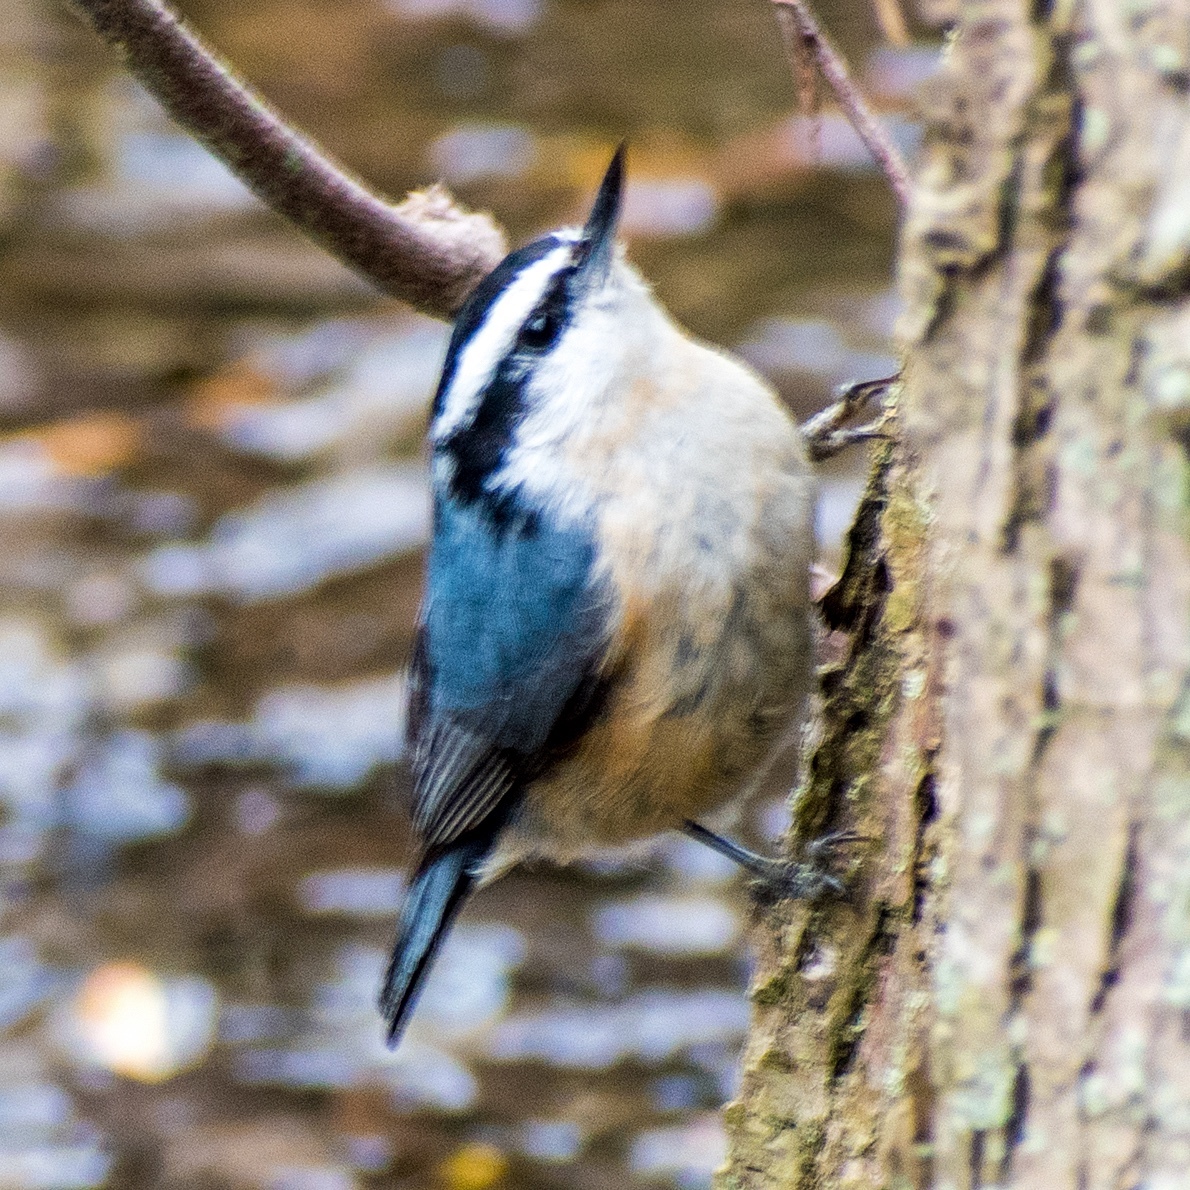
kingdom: Animalia
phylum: Chordata
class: Aves
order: Passeriformes
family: Sittidae
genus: Sitta
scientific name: Sitta canadensis
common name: Red-breasted nuthatch
